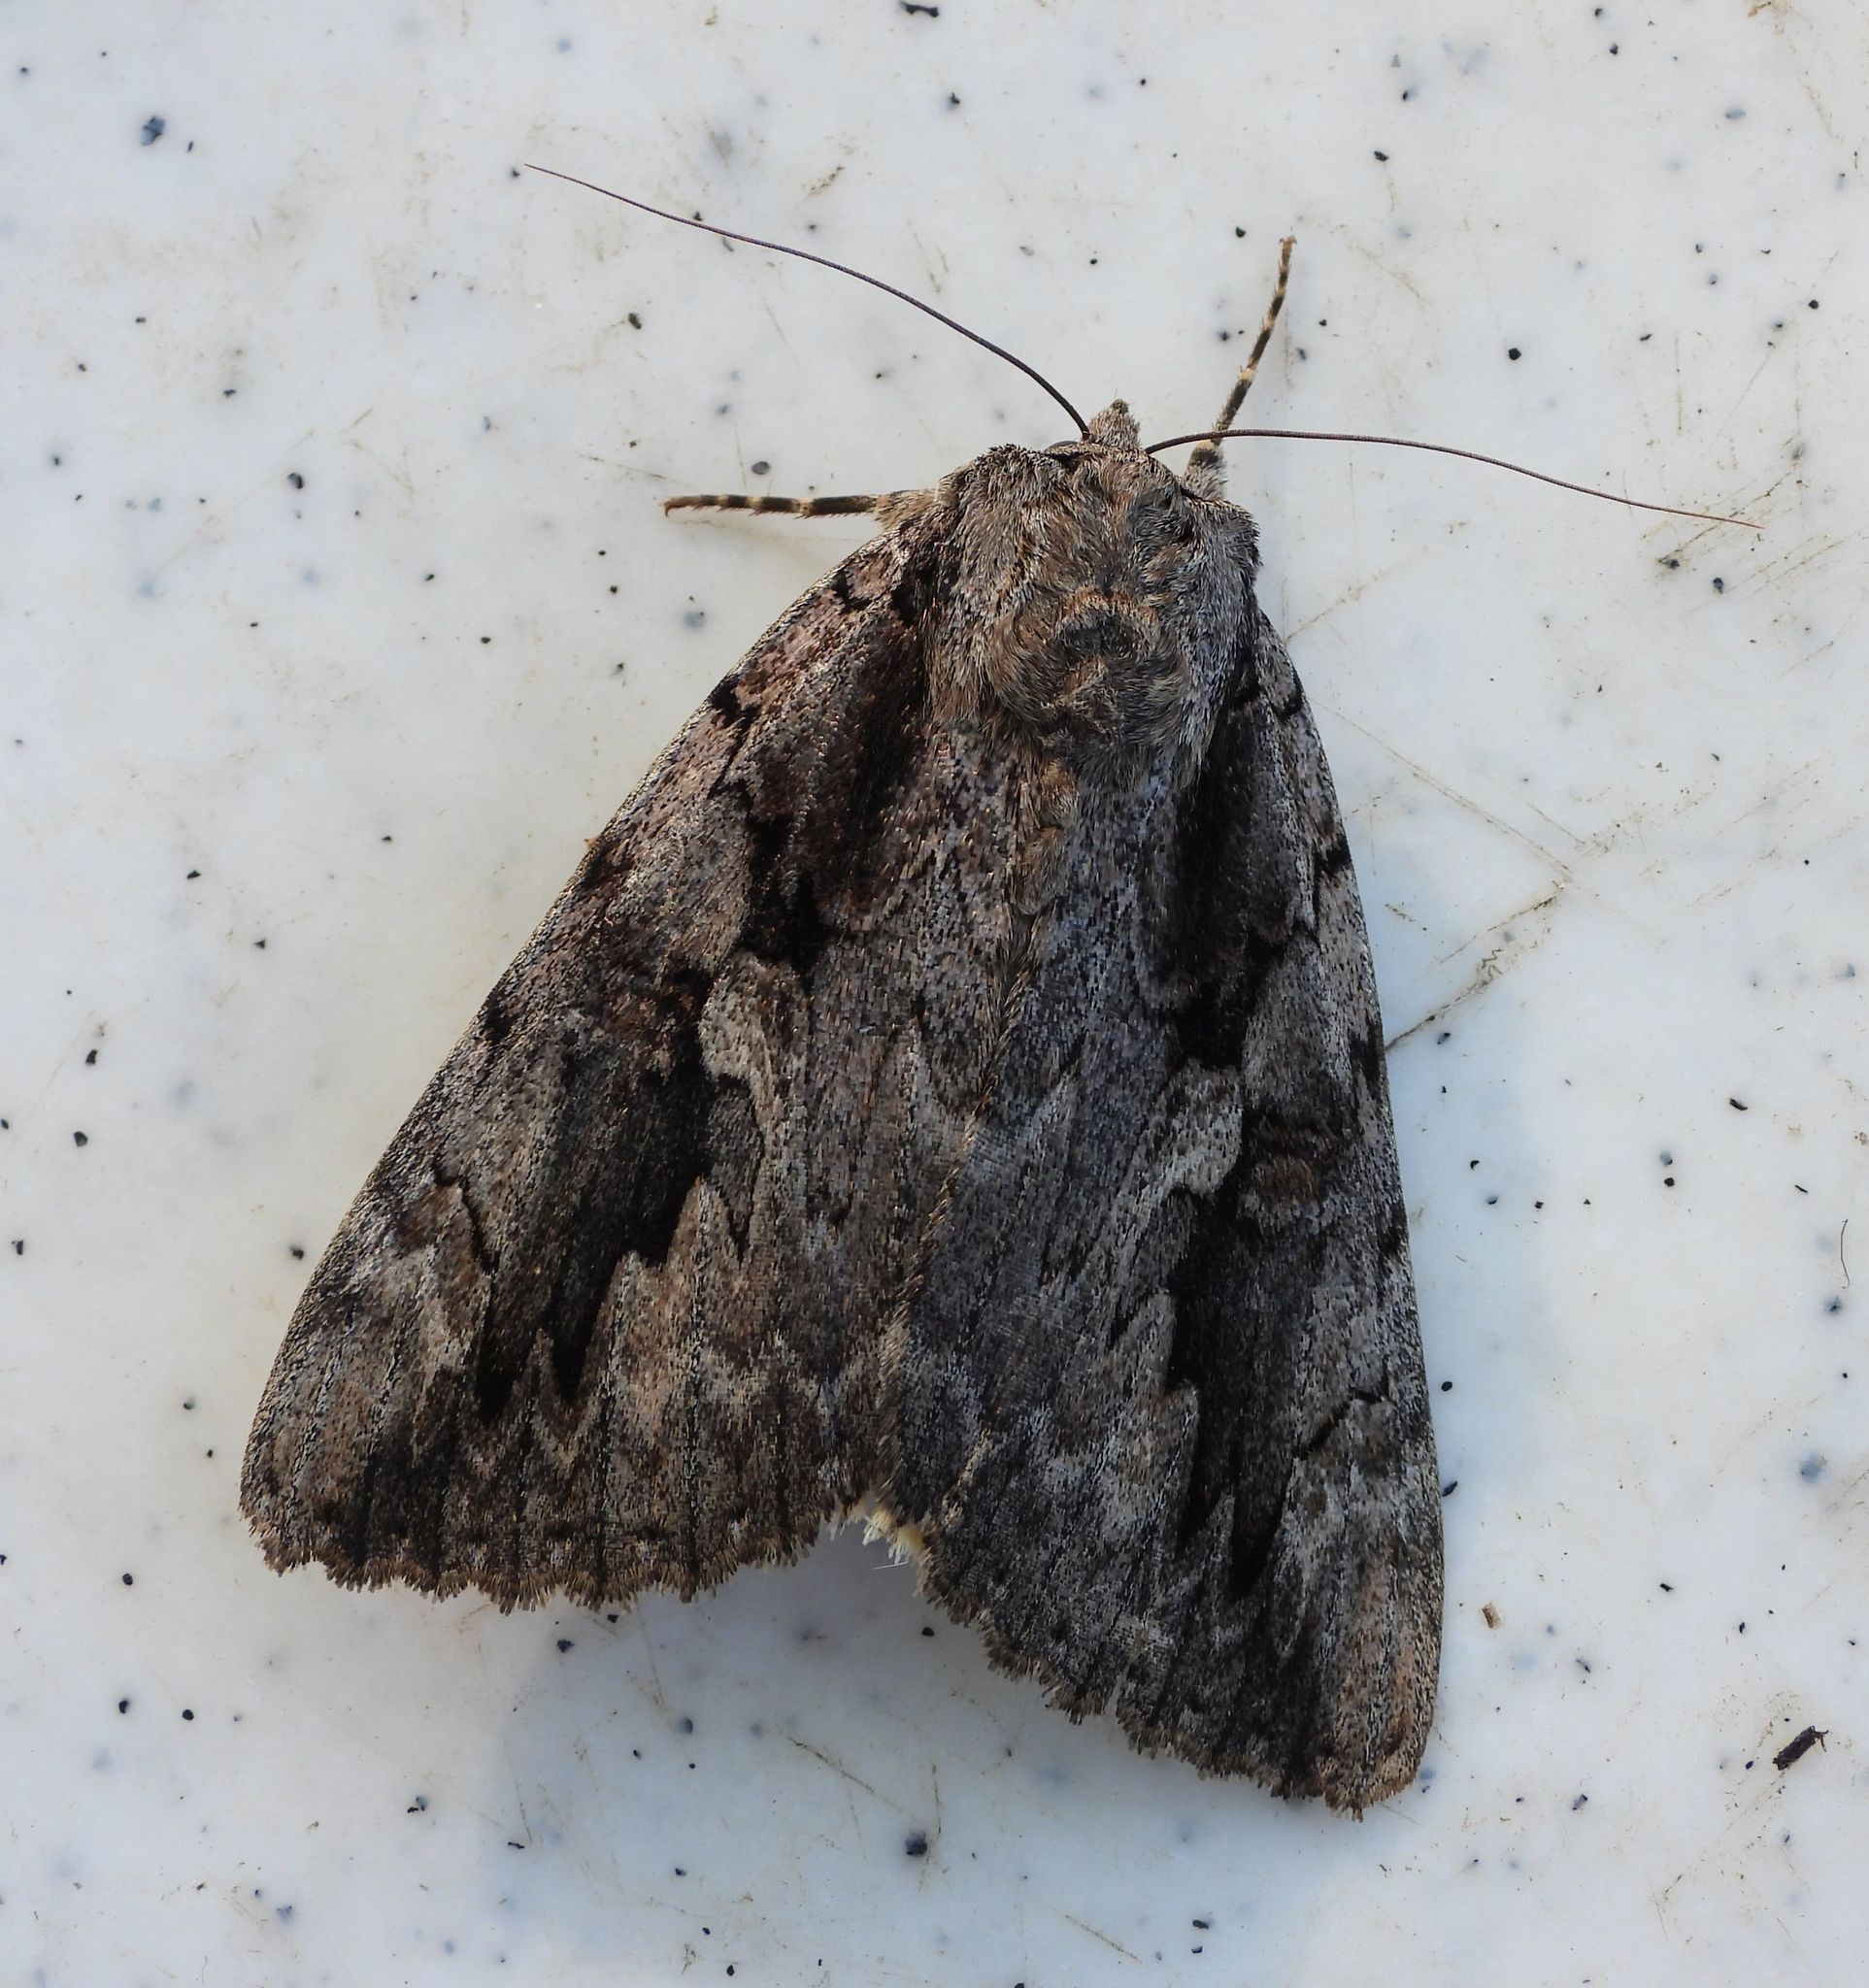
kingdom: Animalia
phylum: Arthropoda
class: Insecta
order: Lepidoptera
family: Erebidae
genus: Catocala
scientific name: Catocala amatrix
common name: Sweetheart underwing
